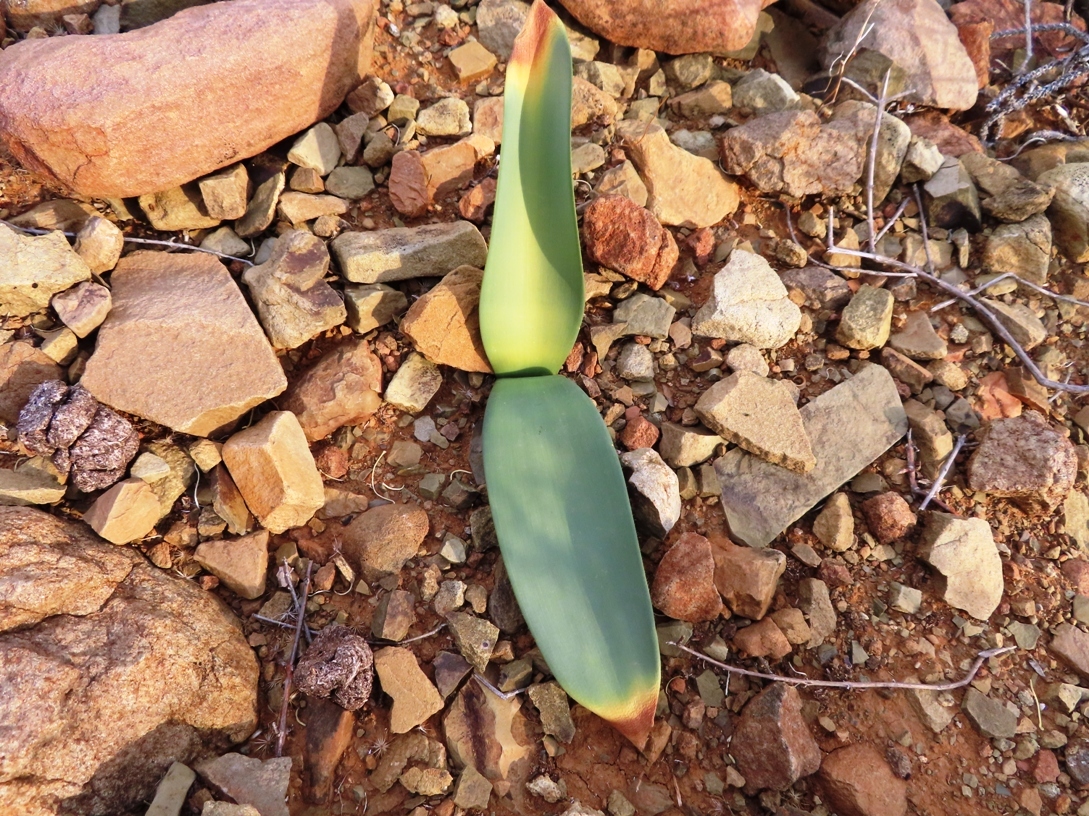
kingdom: Plantae
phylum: Tracheophyta
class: Liliopsida
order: Asparagales
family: Amaryllidaceae
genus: Haemanthus
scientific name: Haemanthus coccineus
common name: Cape-tulip
